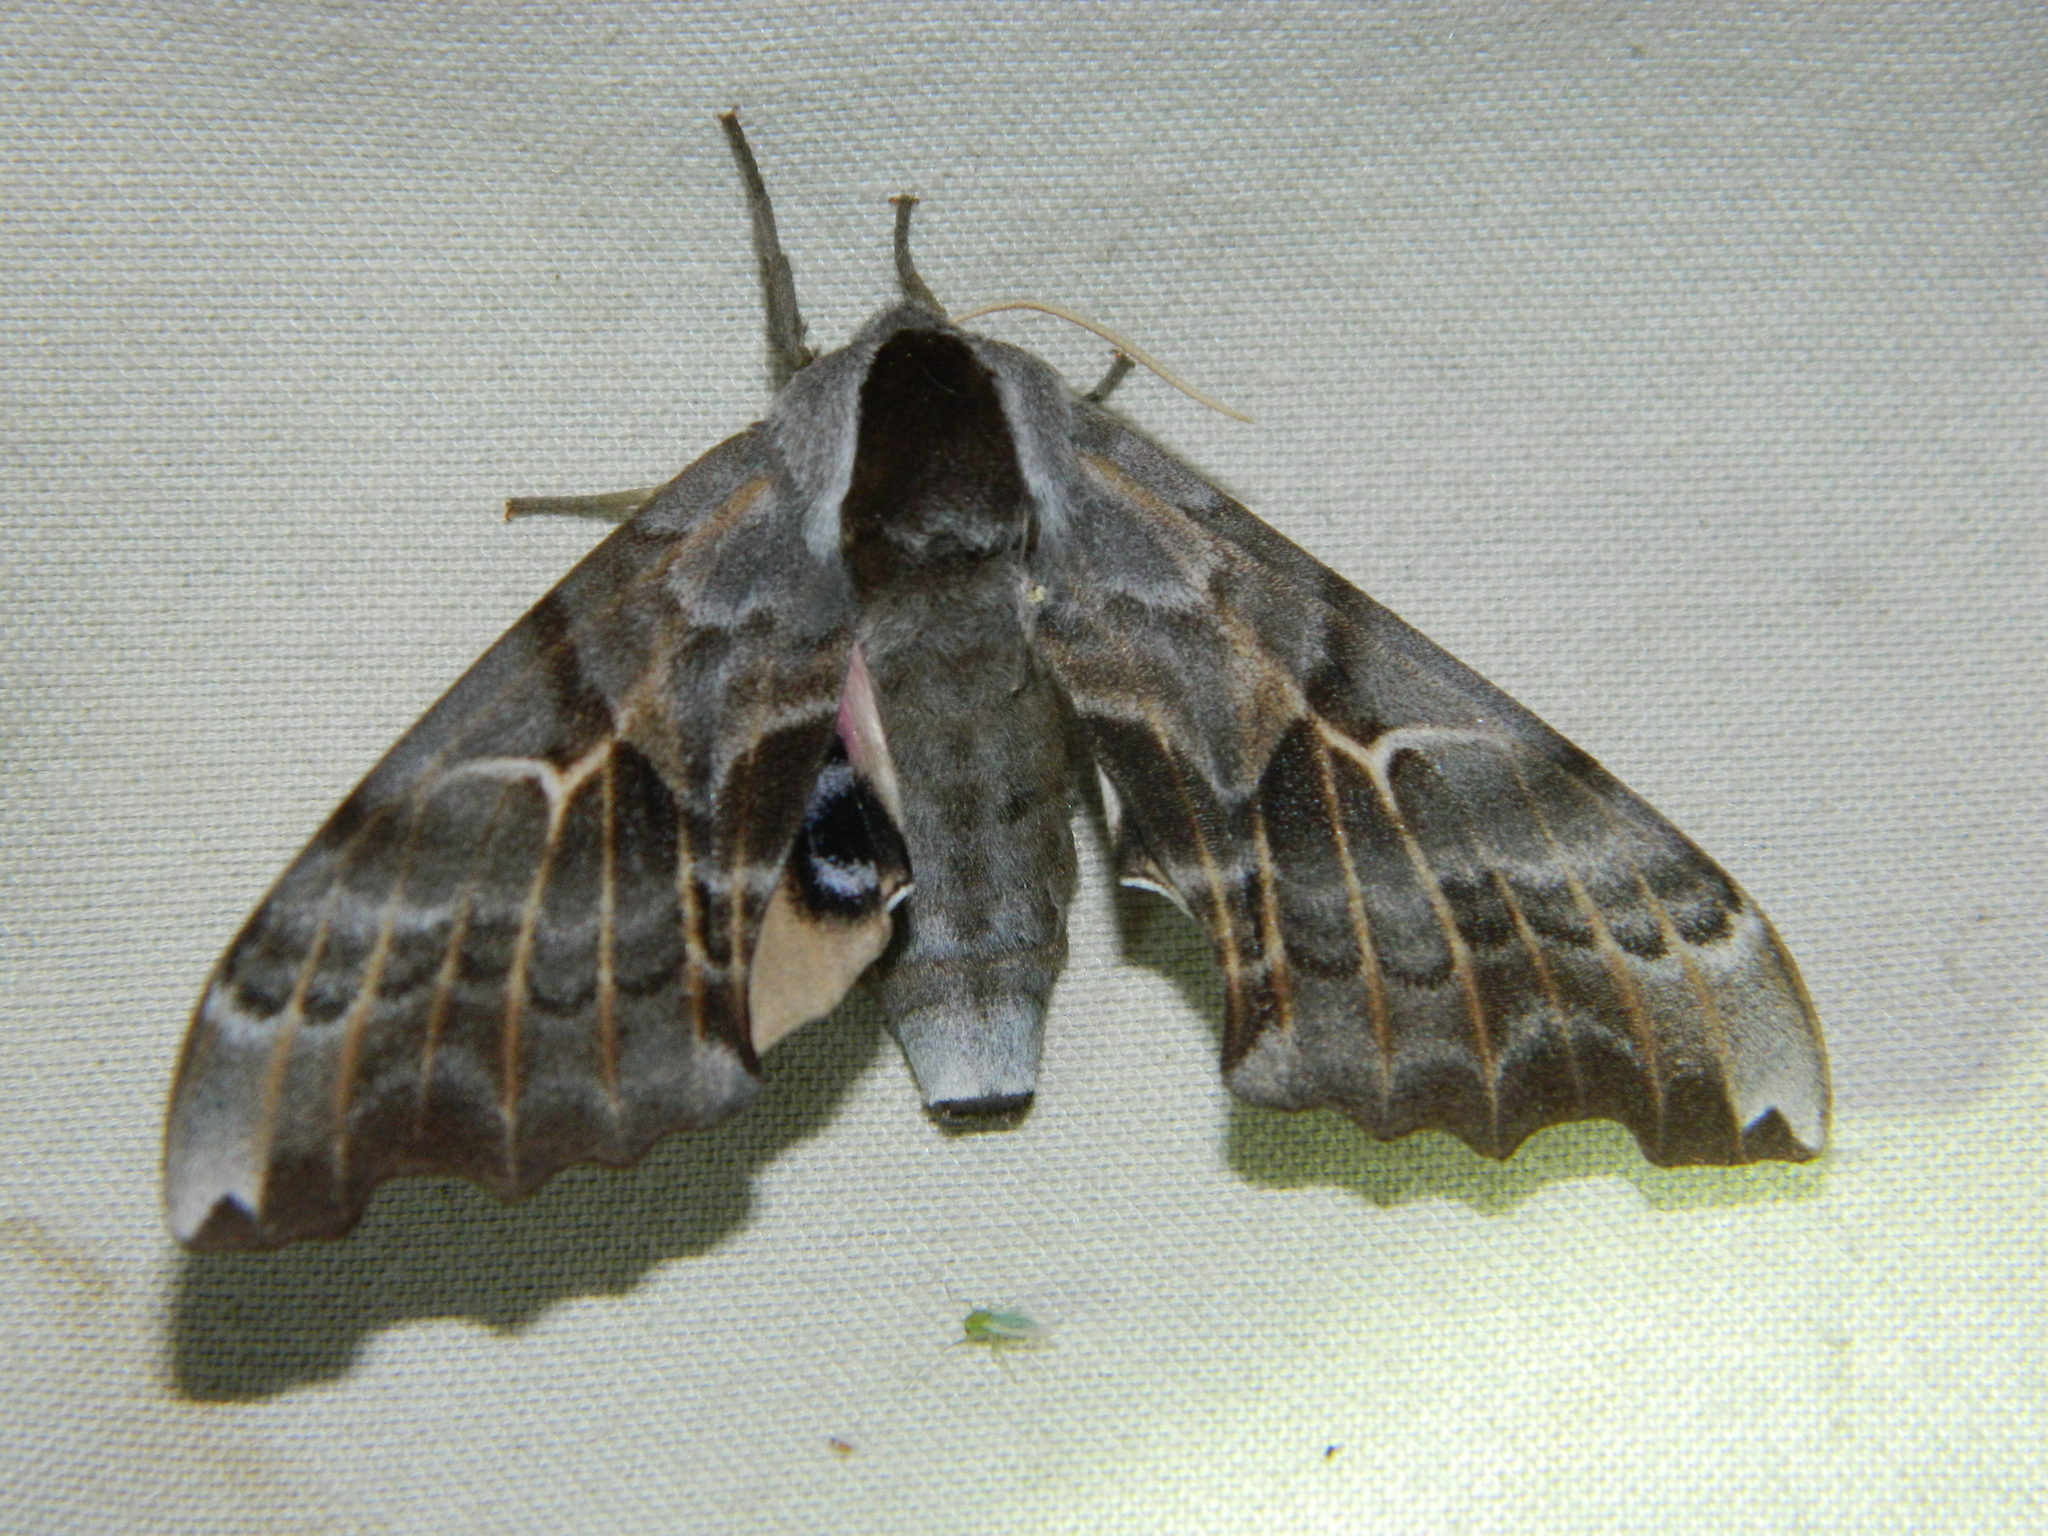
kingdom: Animalia
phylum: Arthropoda
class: Insecta
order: Lepidoptera
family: Sphingidae
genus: Smerinthus
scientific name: Smerinthus cerisyi
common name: Cerisy's sphinx moth
